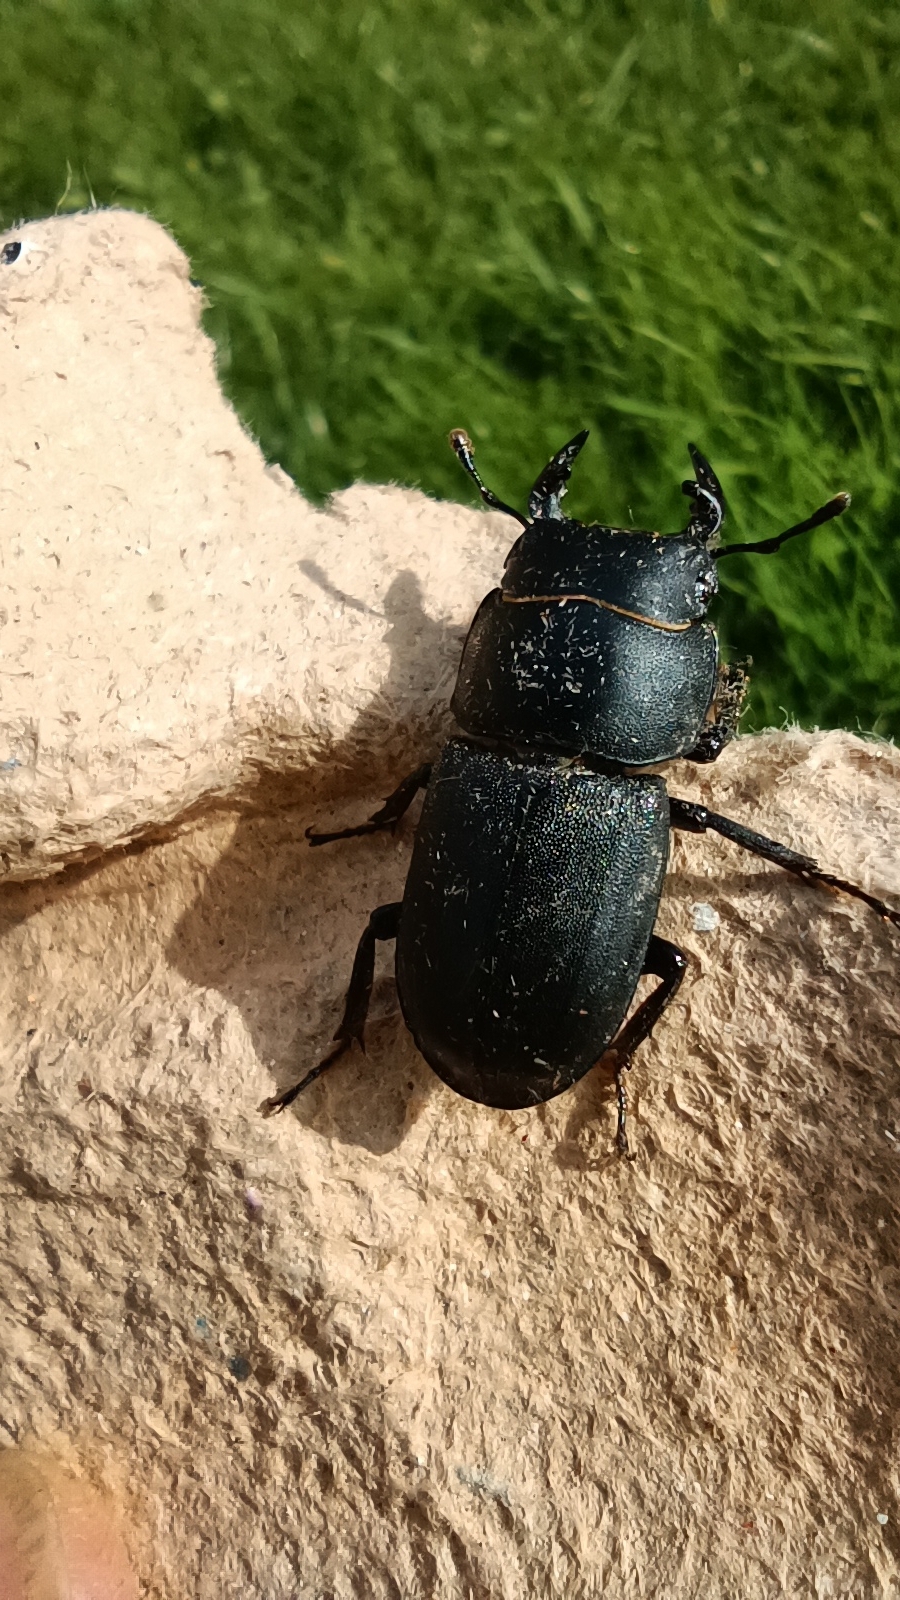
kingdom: Animalia
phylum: Arthropoda
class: Insecta
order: Coleoptera
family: Lucanidae
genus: Dorcus
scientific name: Dorcus parallelipipedus
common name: Lesser stag beetle
